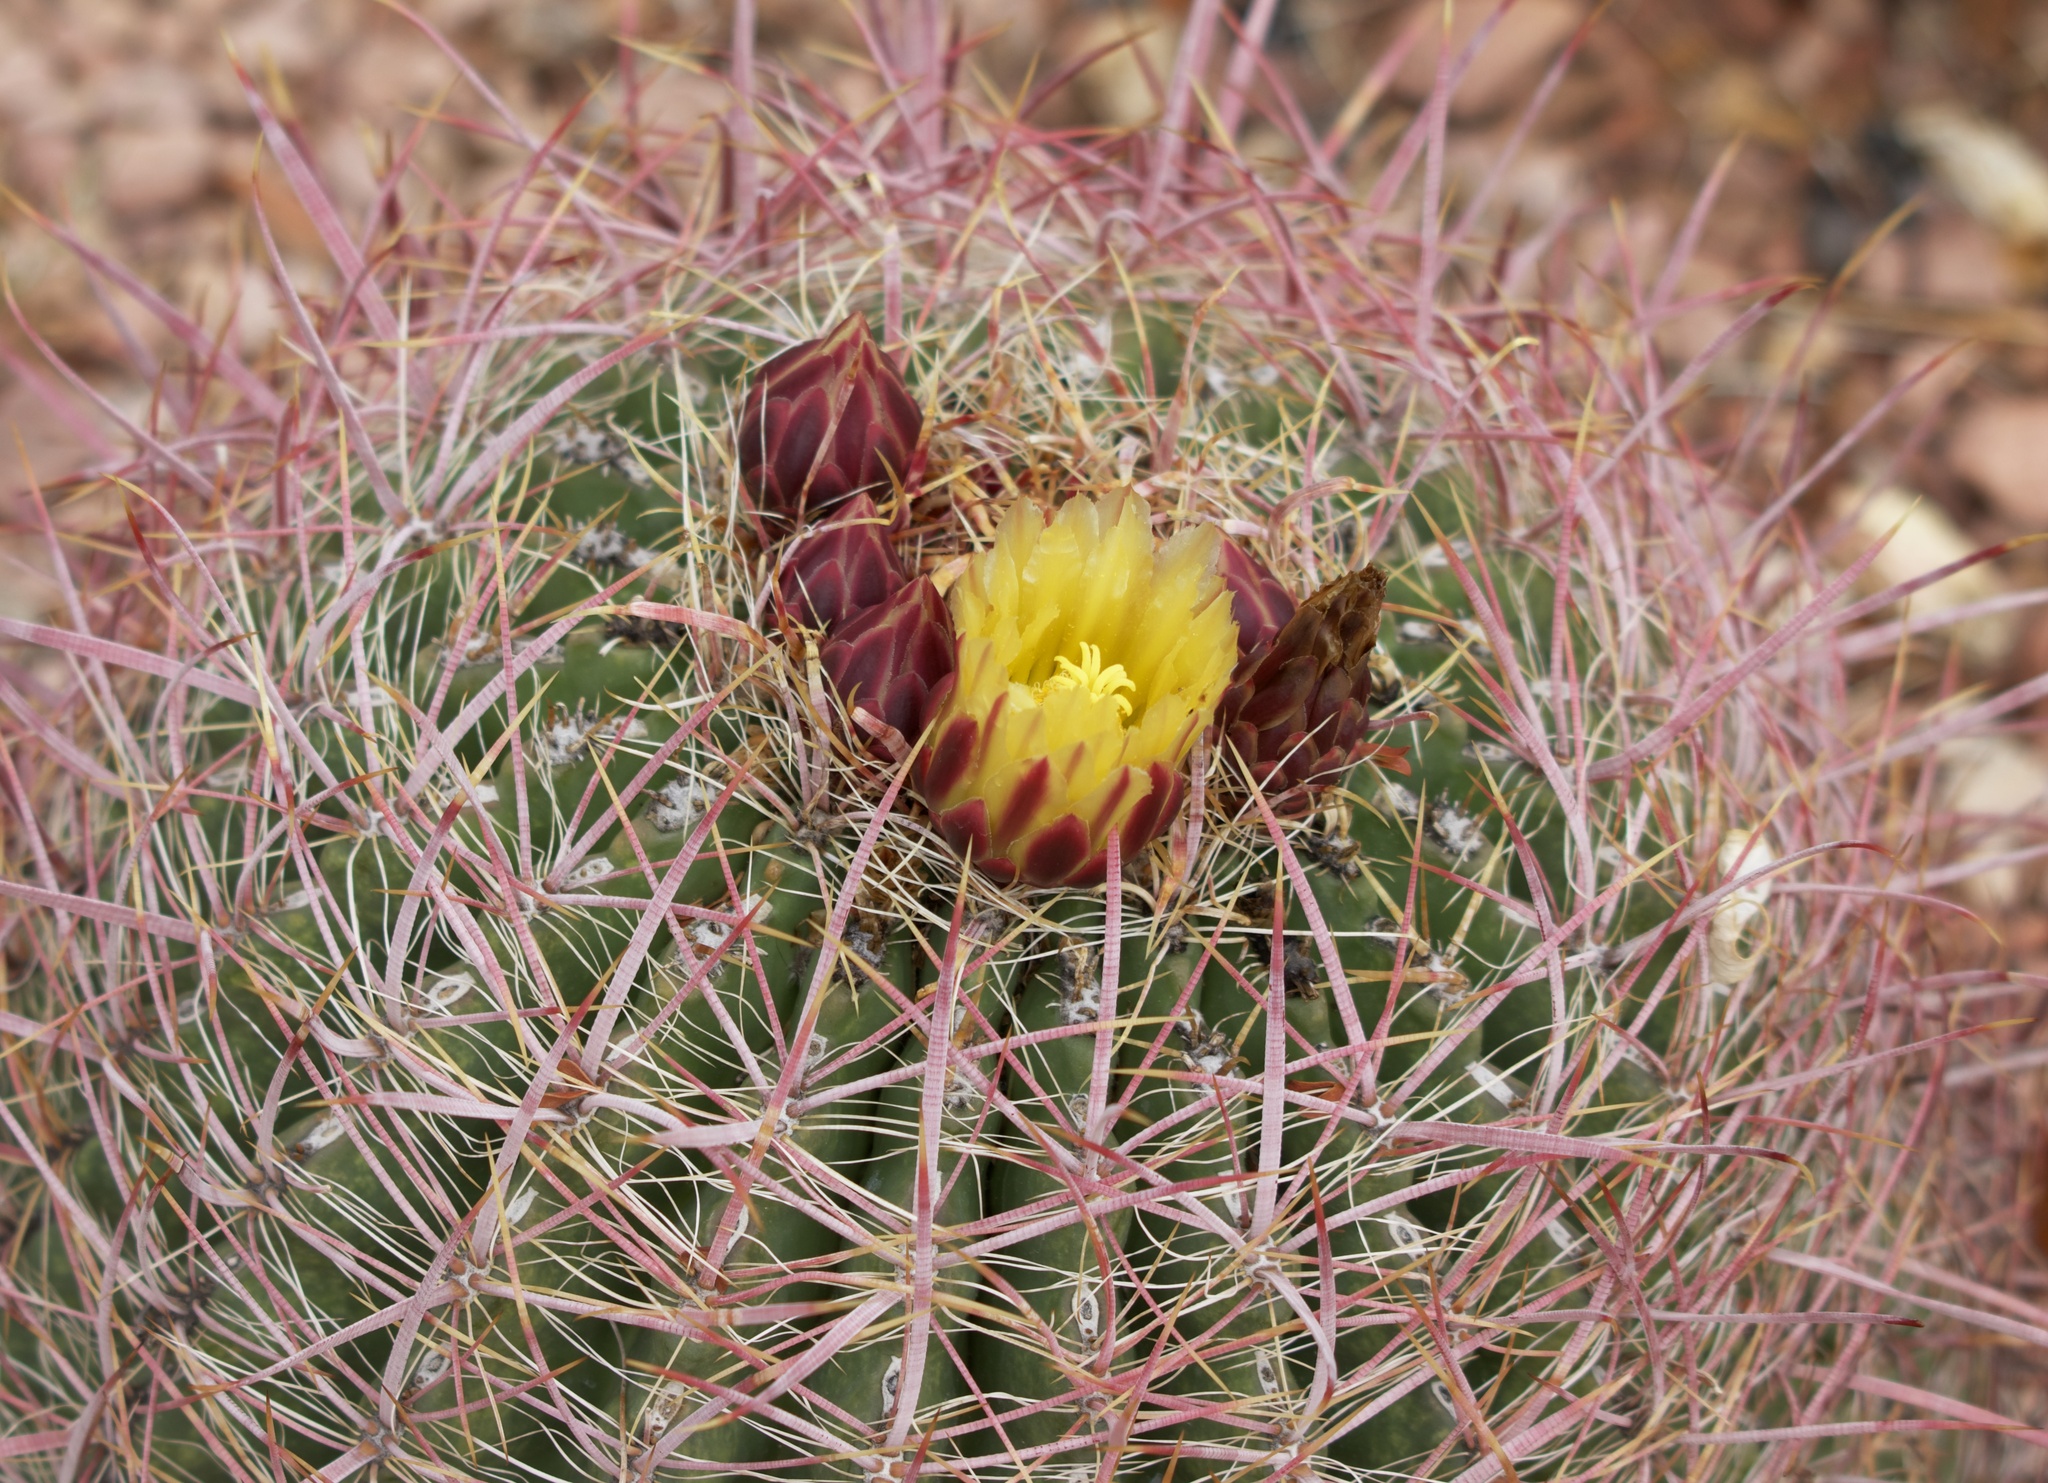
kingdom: Plantae
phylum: Tracheophyta
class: Magnoliopsida
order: Caryophyllales
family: Cactaceae
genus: Ferocactus
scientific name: Ferocactus cylindraceus
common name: California barrel cactus
